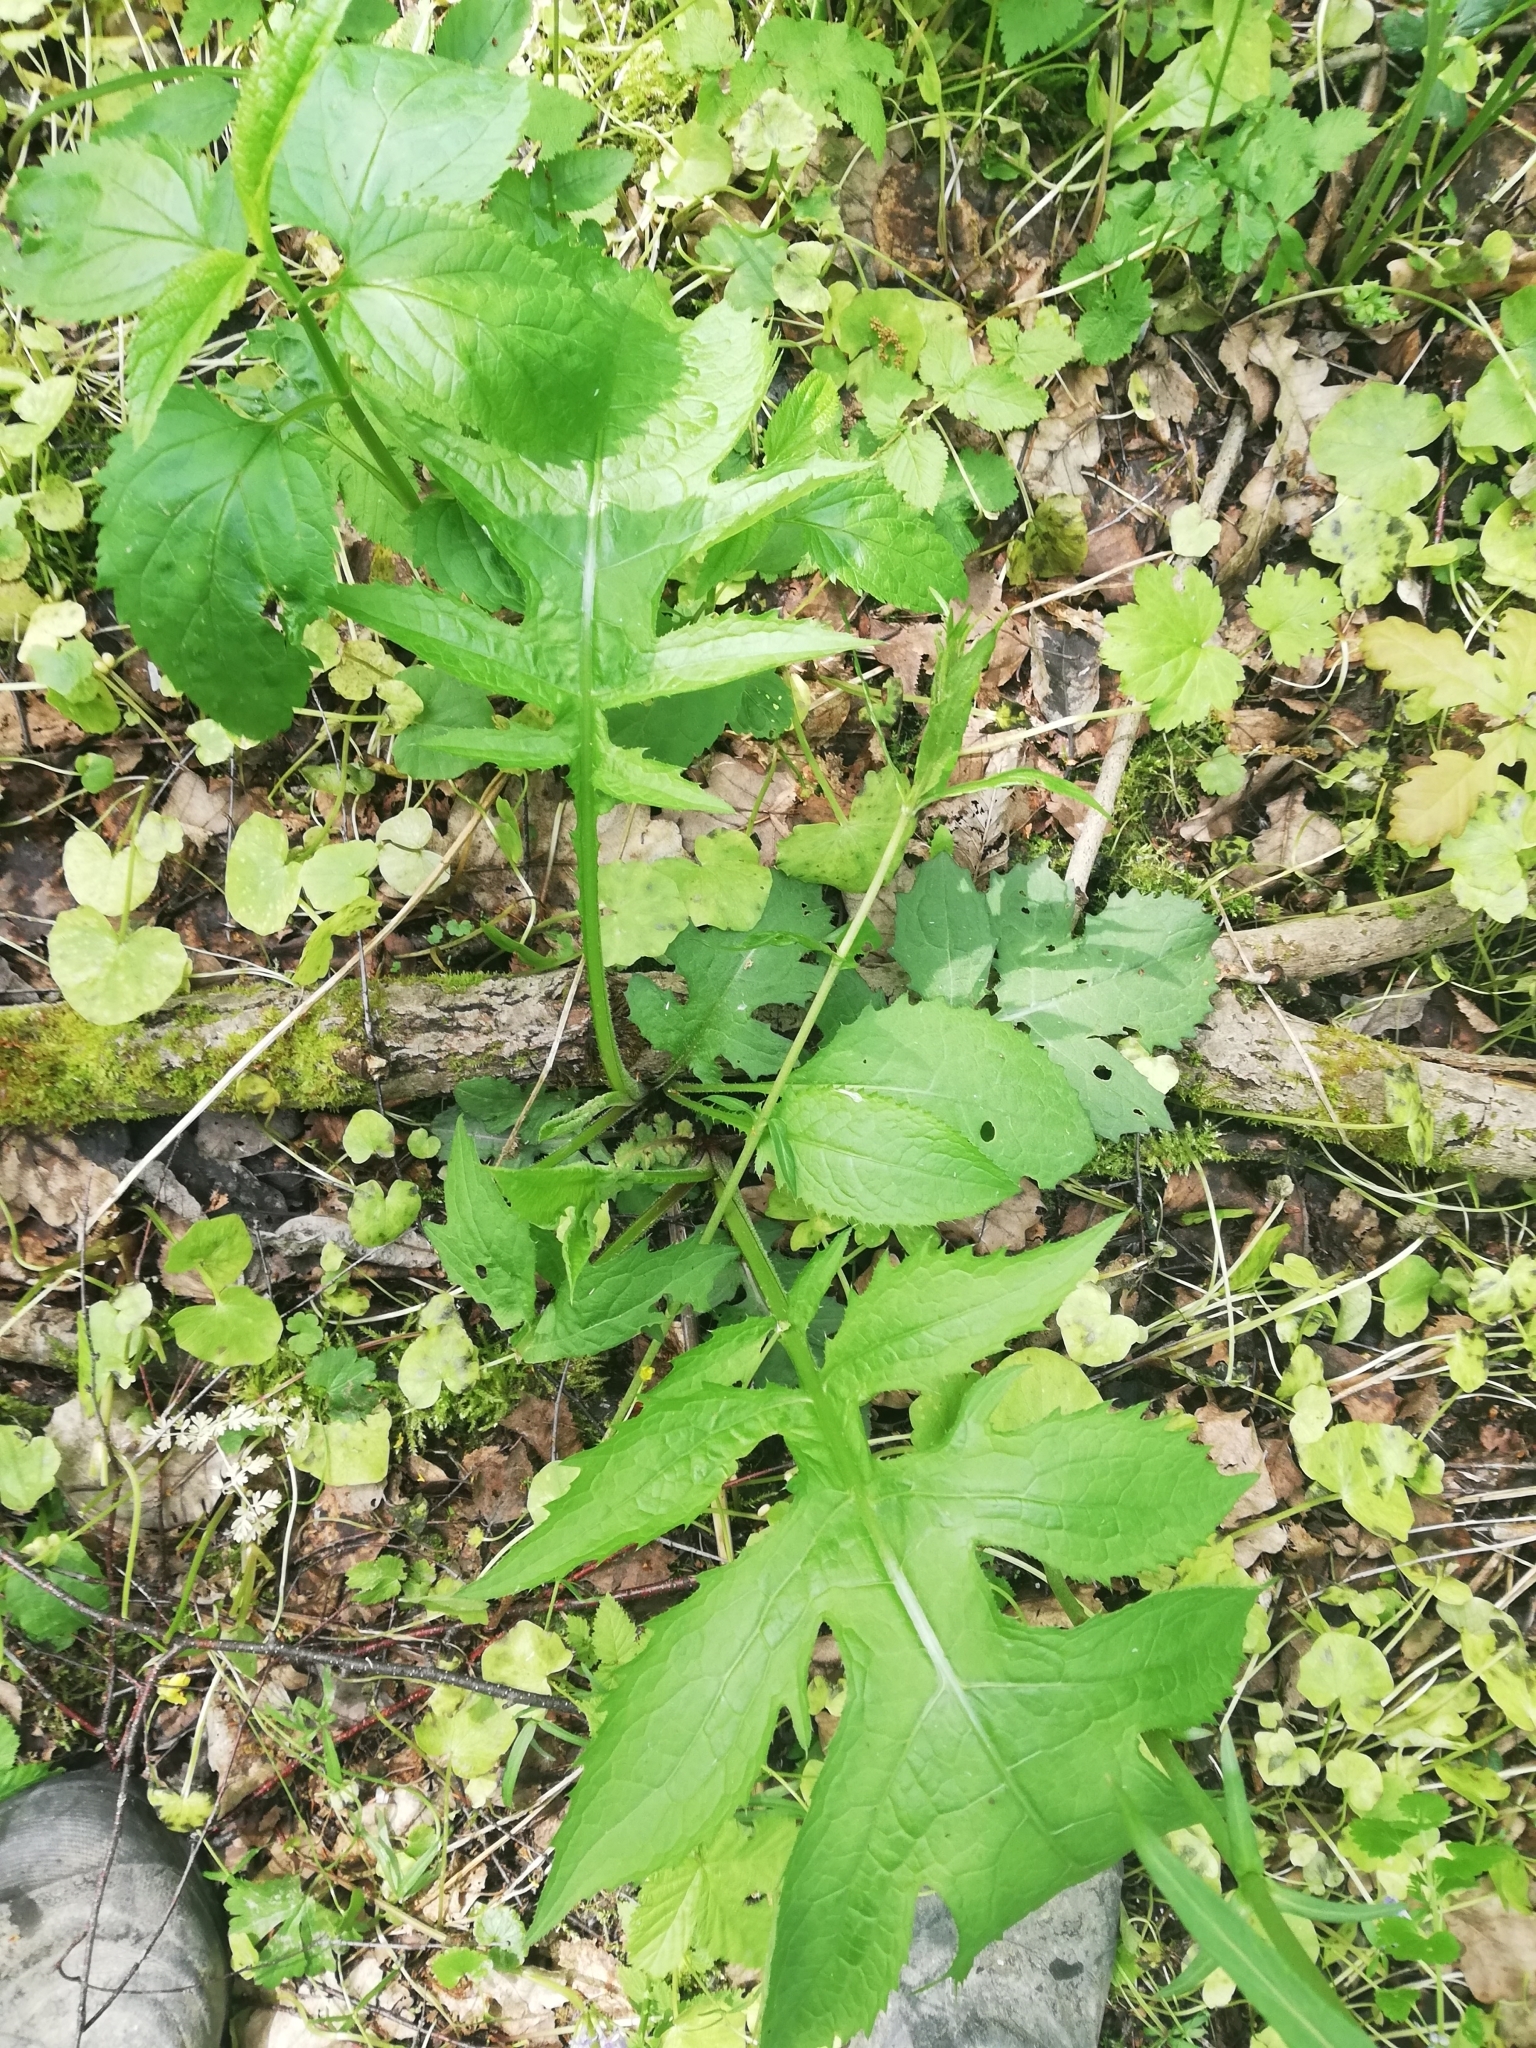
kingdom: Plantae
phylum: Tracheophyta
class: Magnoliopsida
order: Asterales
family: Asteraceae
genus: Cirsium
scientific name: Cirsium oleraceum
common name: Cabbage thistle
